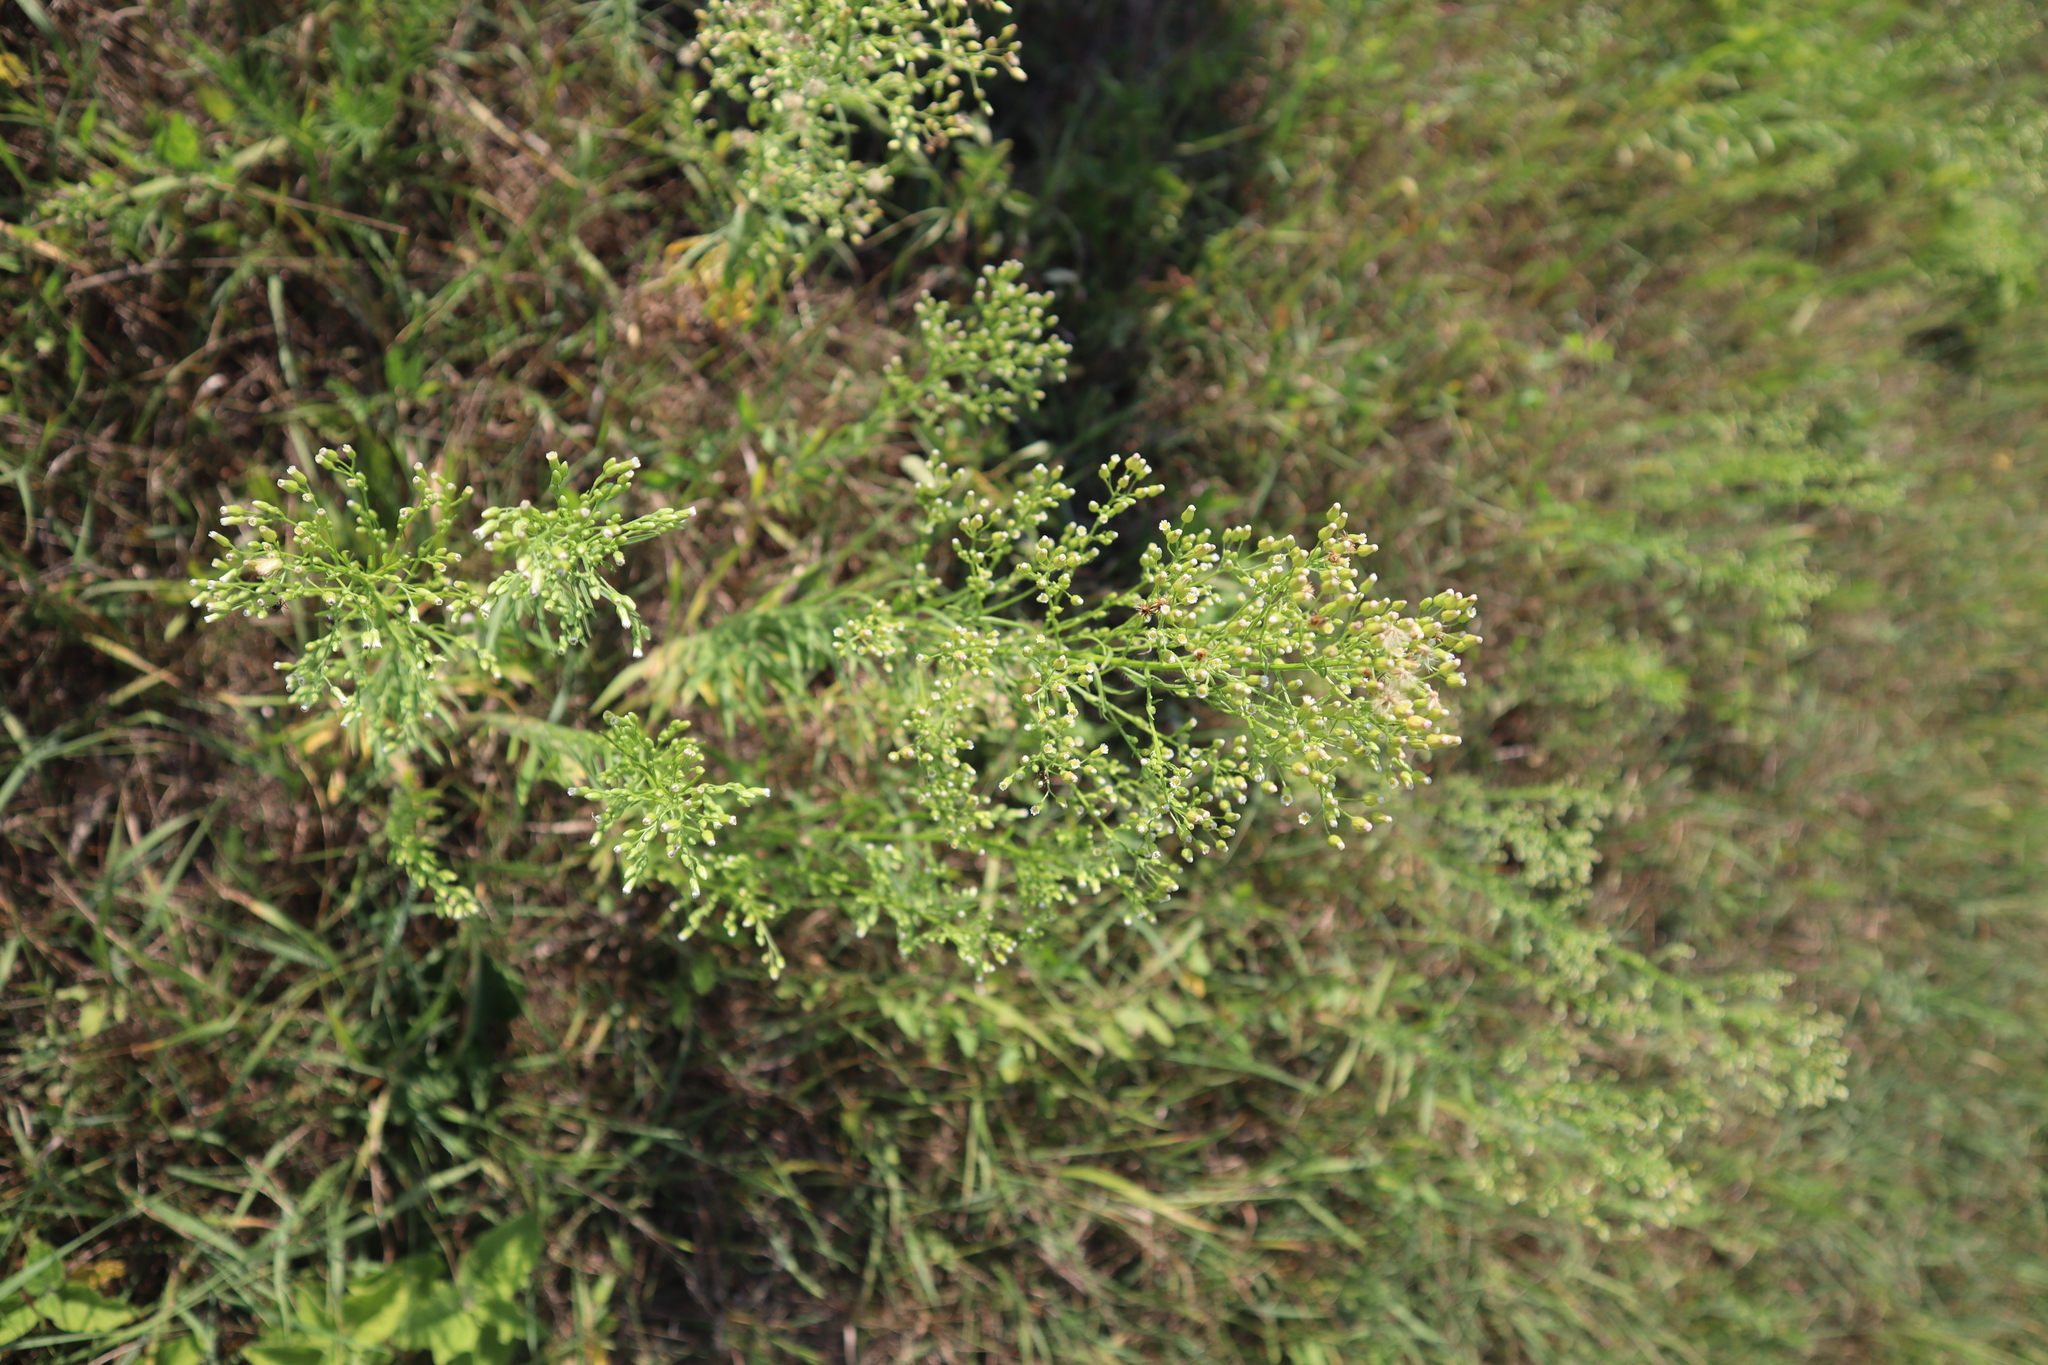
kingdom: Plantae
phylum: Tracheophyta
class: Magnoliopsida
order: Asterales
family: Asteraceae
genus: Erigeron
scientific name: Erigeron canadensis
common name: Canadian fleabane
